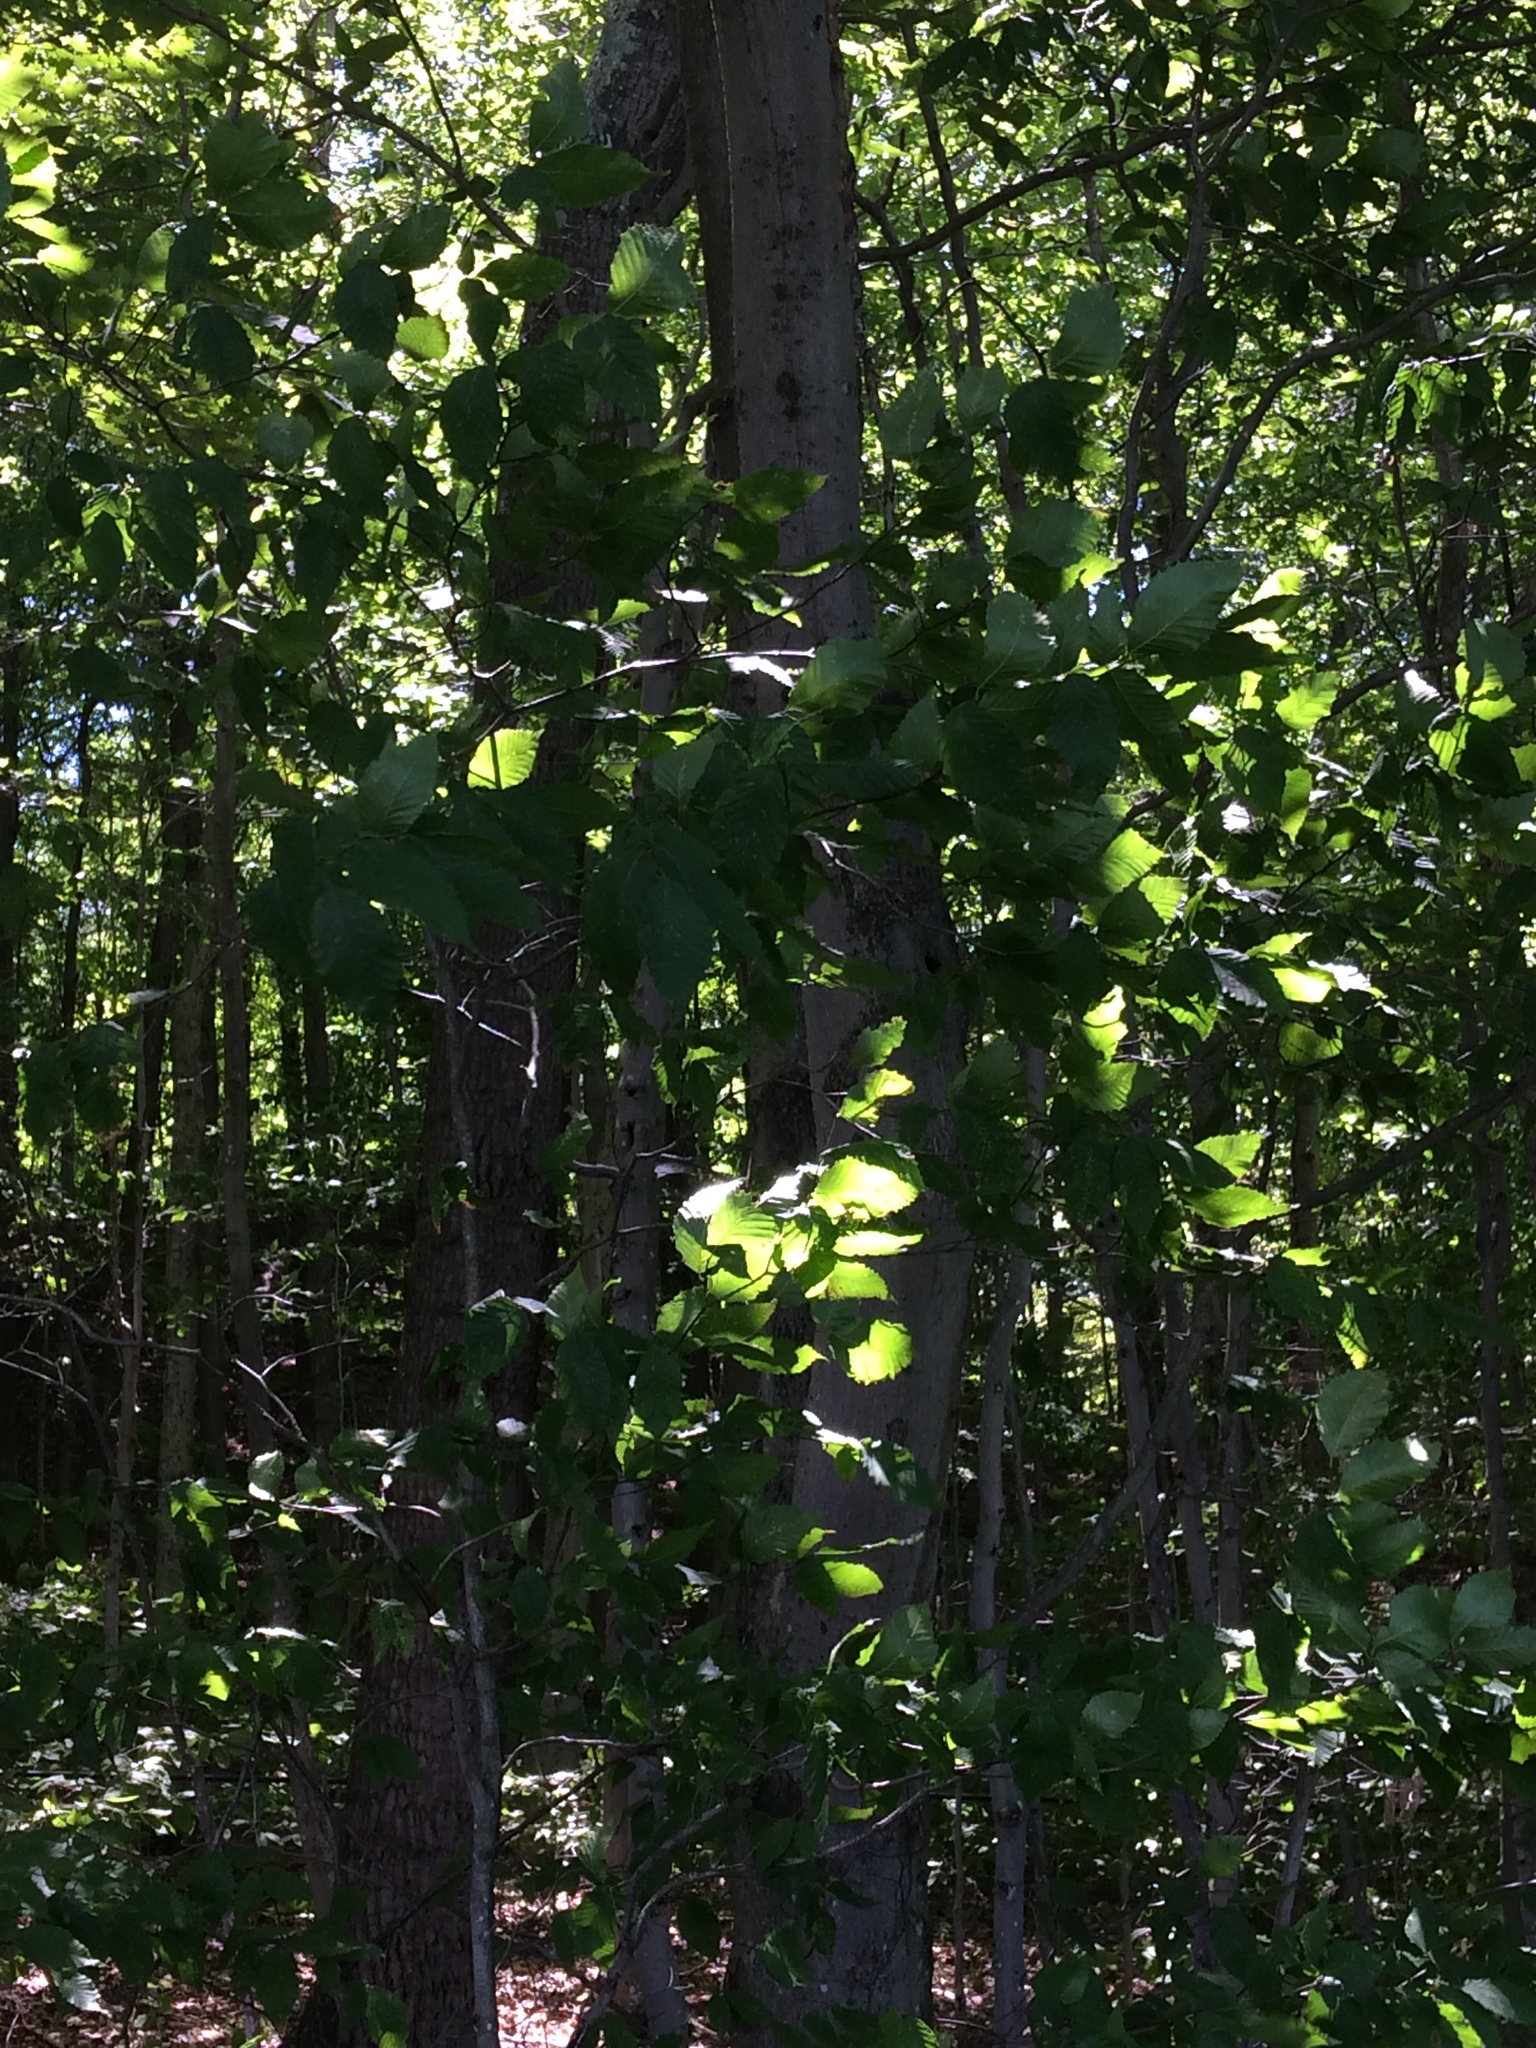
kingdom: Plantae
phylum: Tracheophyta
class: Magnoliopsida
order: Fagales
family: Fagaceae
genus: Fagus
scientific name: Fagus grandifolia
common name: American beech
